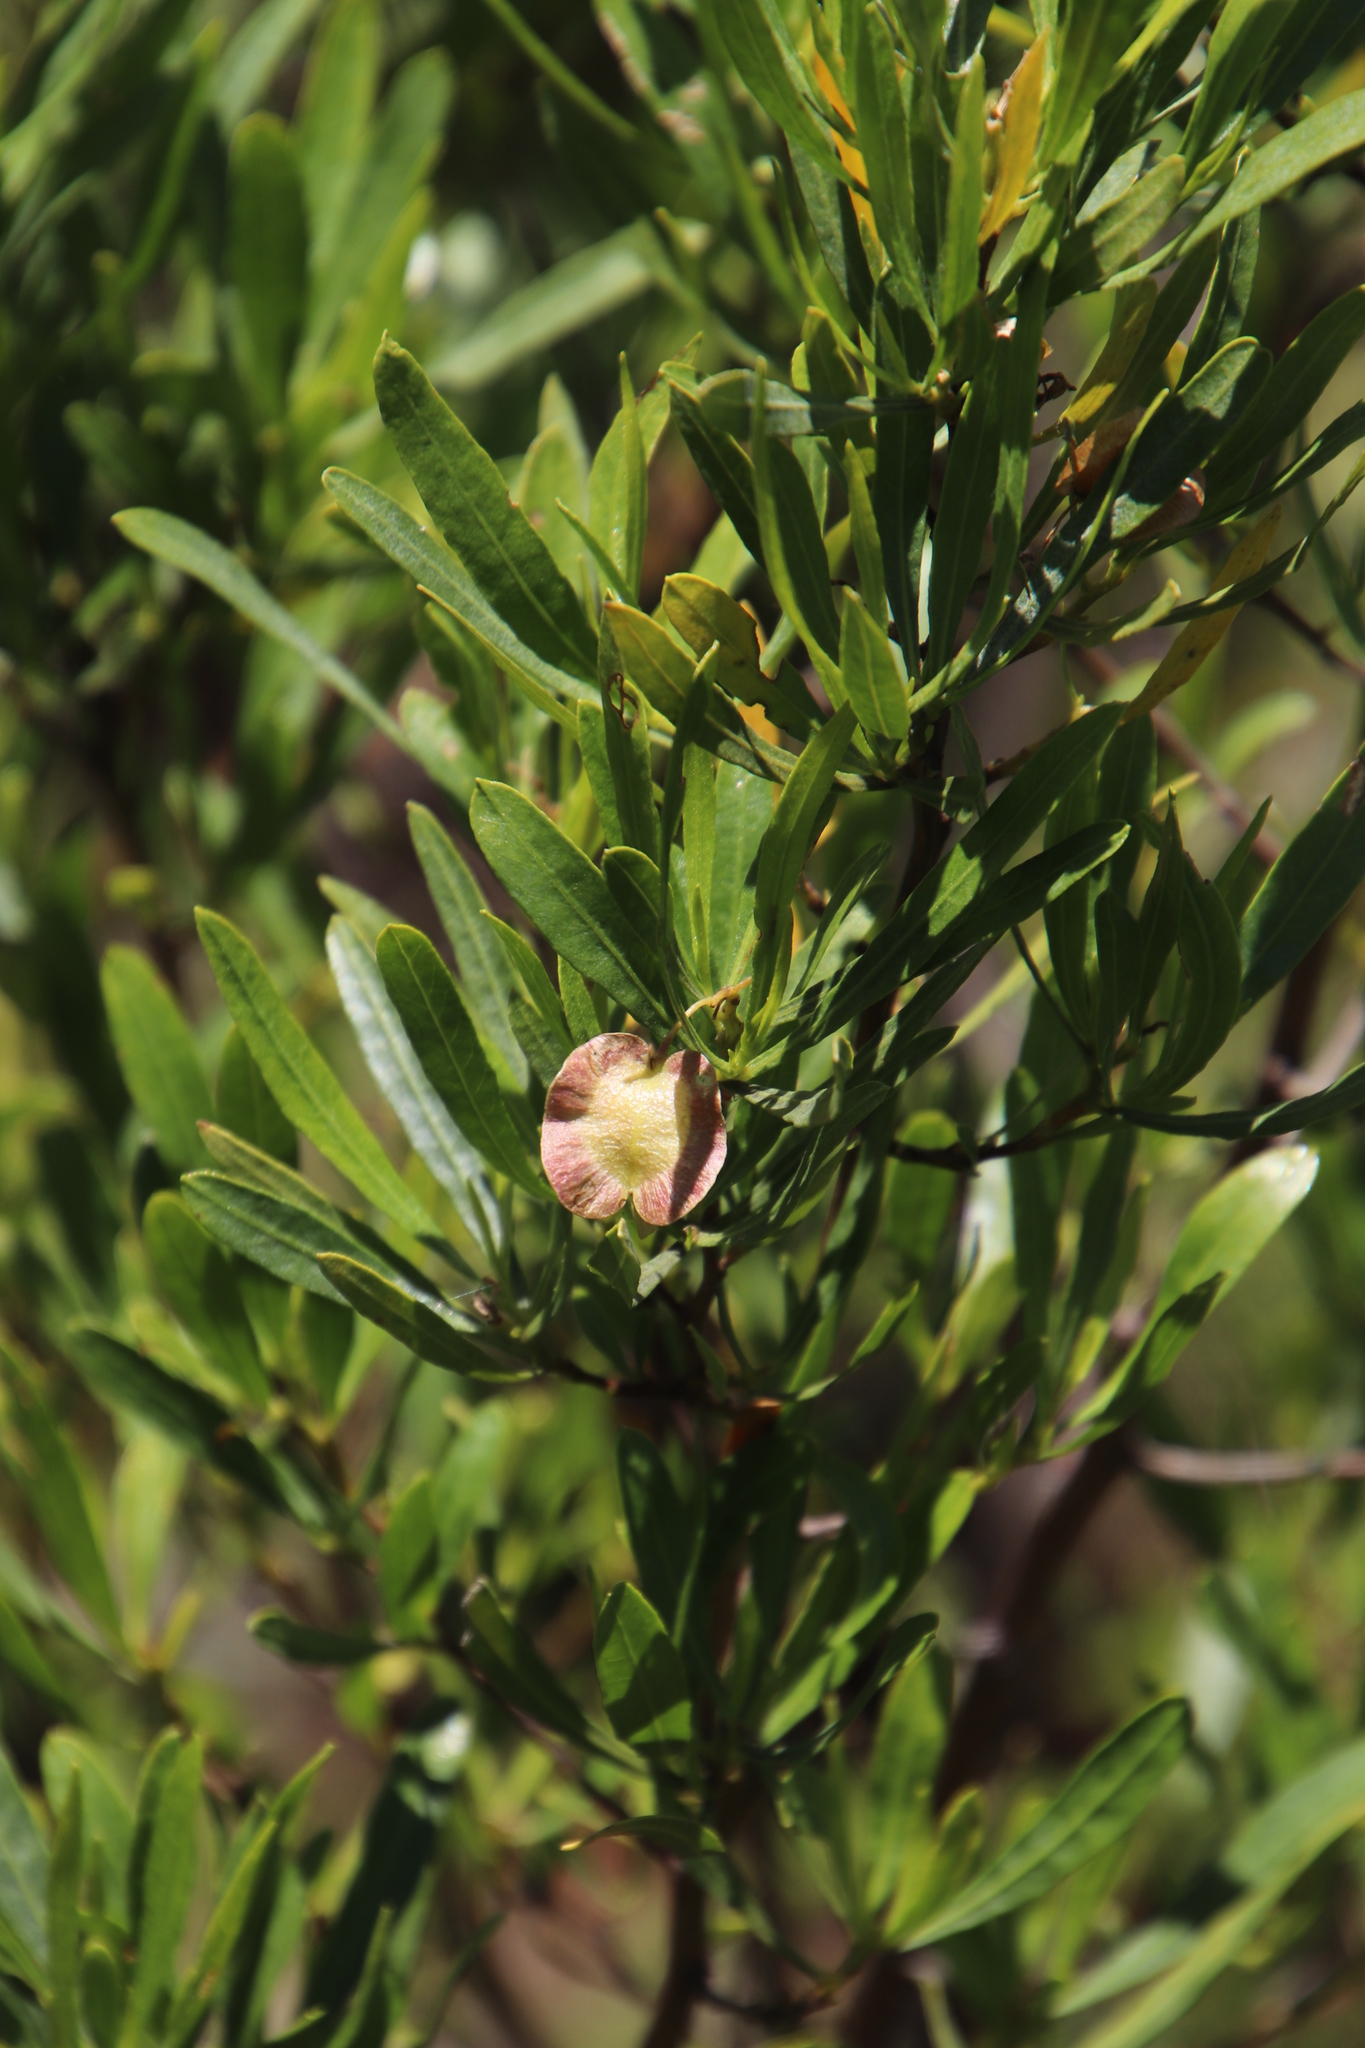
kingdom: Plantae
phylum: Tracheophyta
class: Magnoliopsida
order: Sapindales
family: Sapindaceae
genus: Dodonaea
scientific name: Dodonaea viscosa
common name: Hopbush
